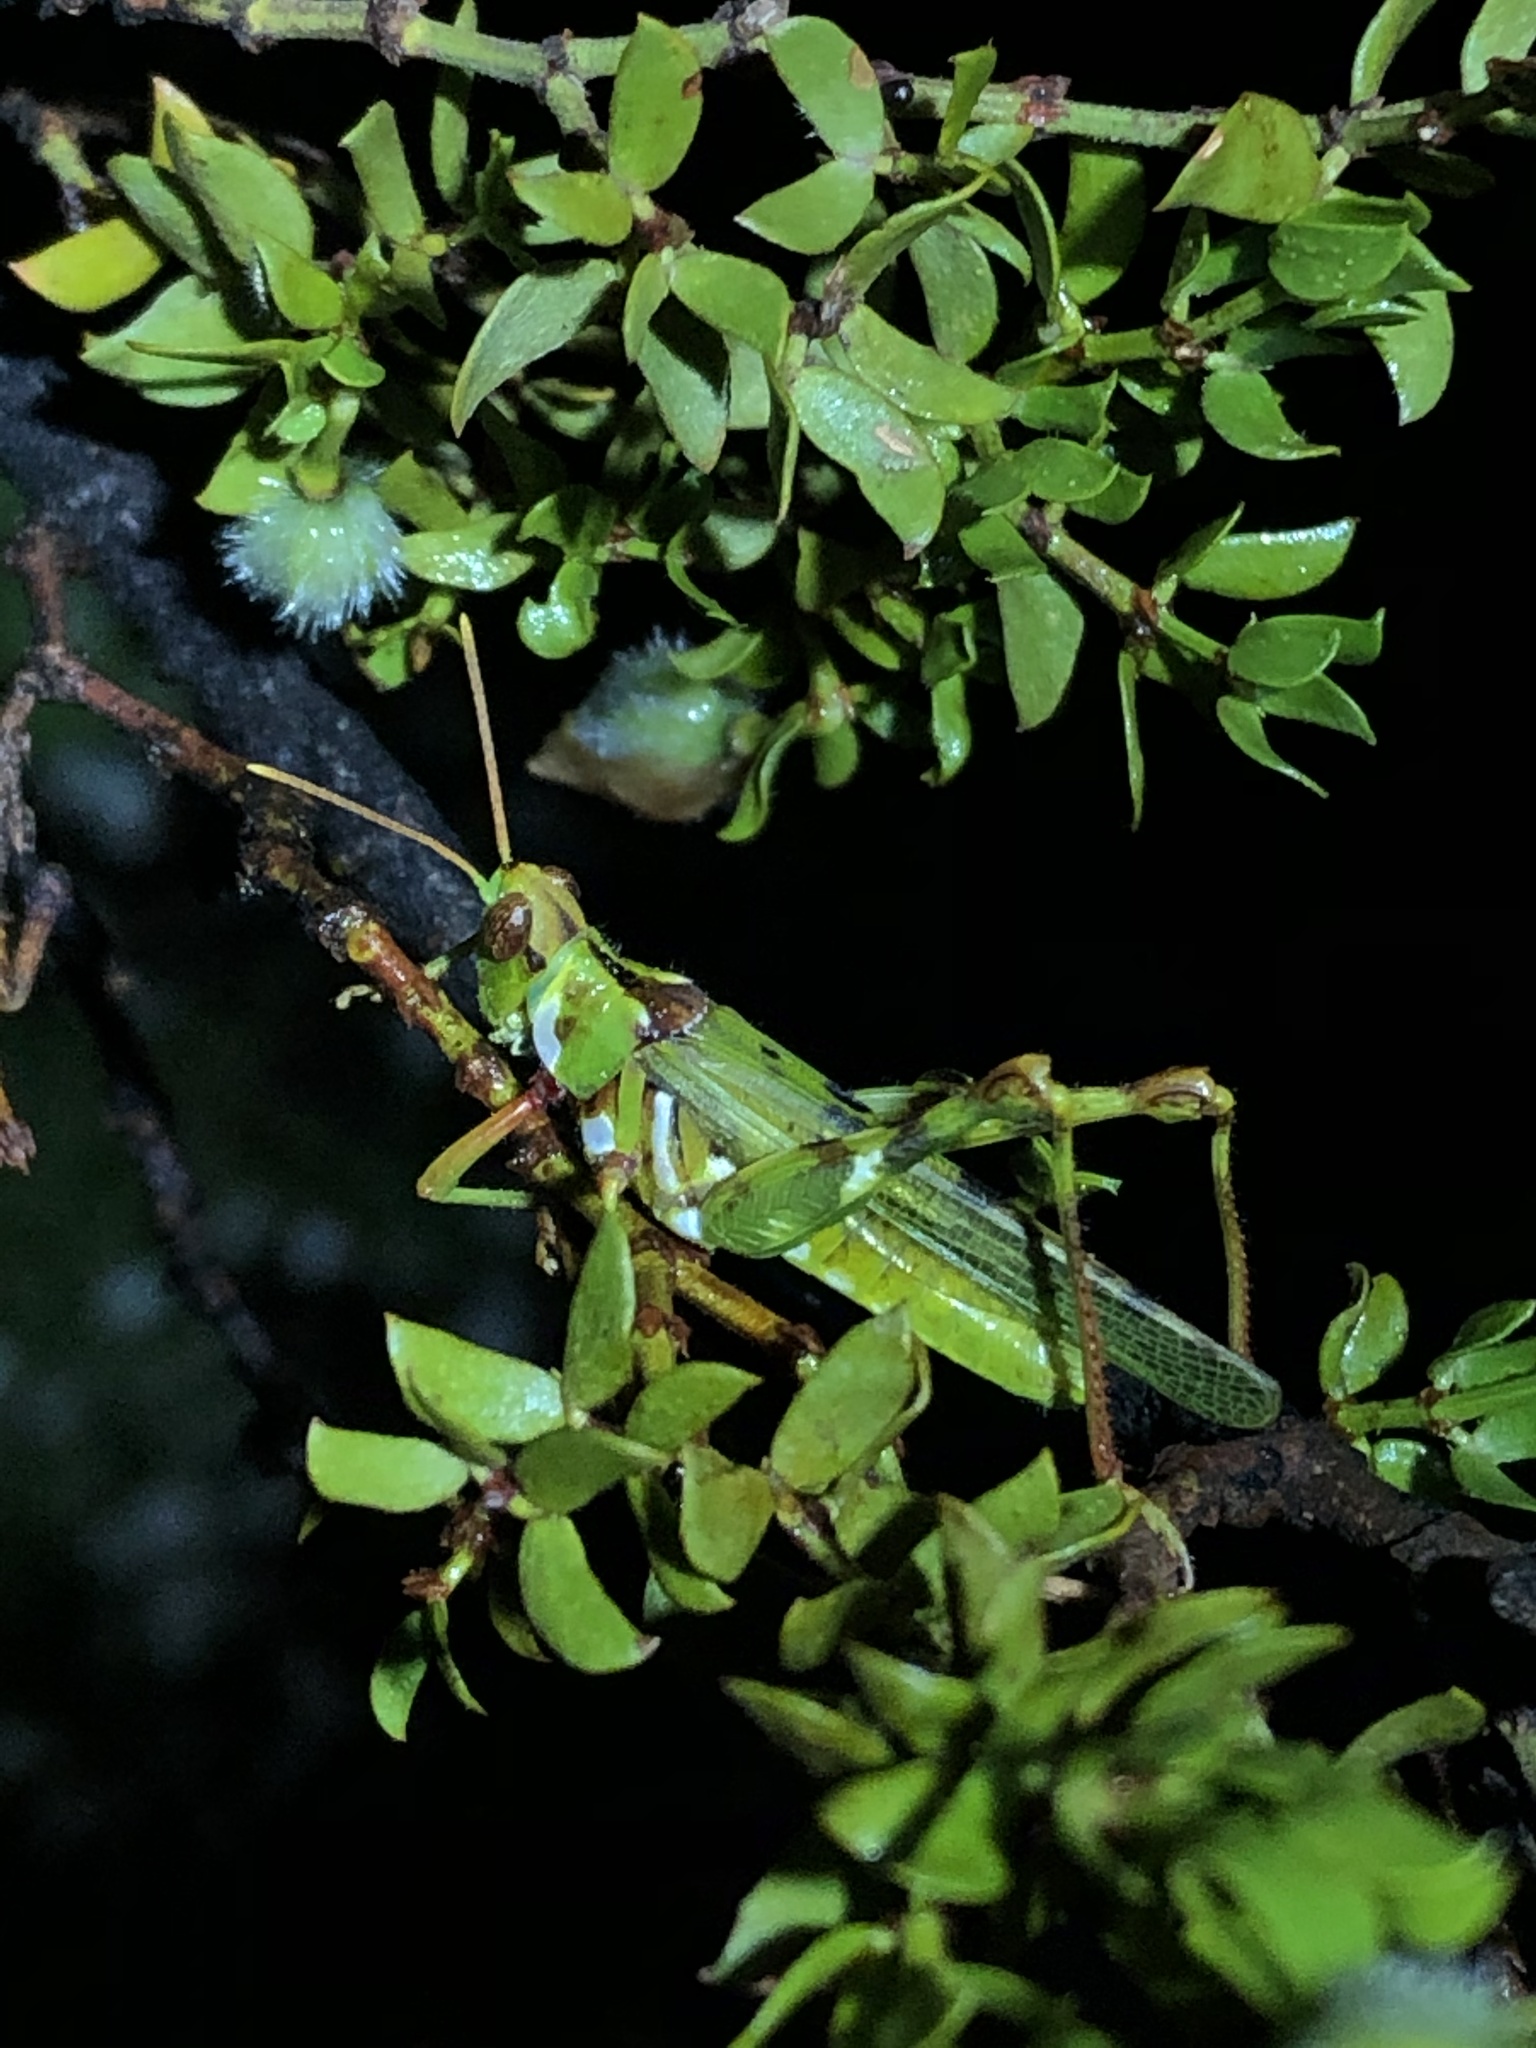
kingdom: Animalia
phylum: Arthropoda
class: Insecta
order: Orthoptera
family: Acrididae
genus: Bootettix
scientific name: Bootettix argentatus
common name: Creosote bush grasshopper
